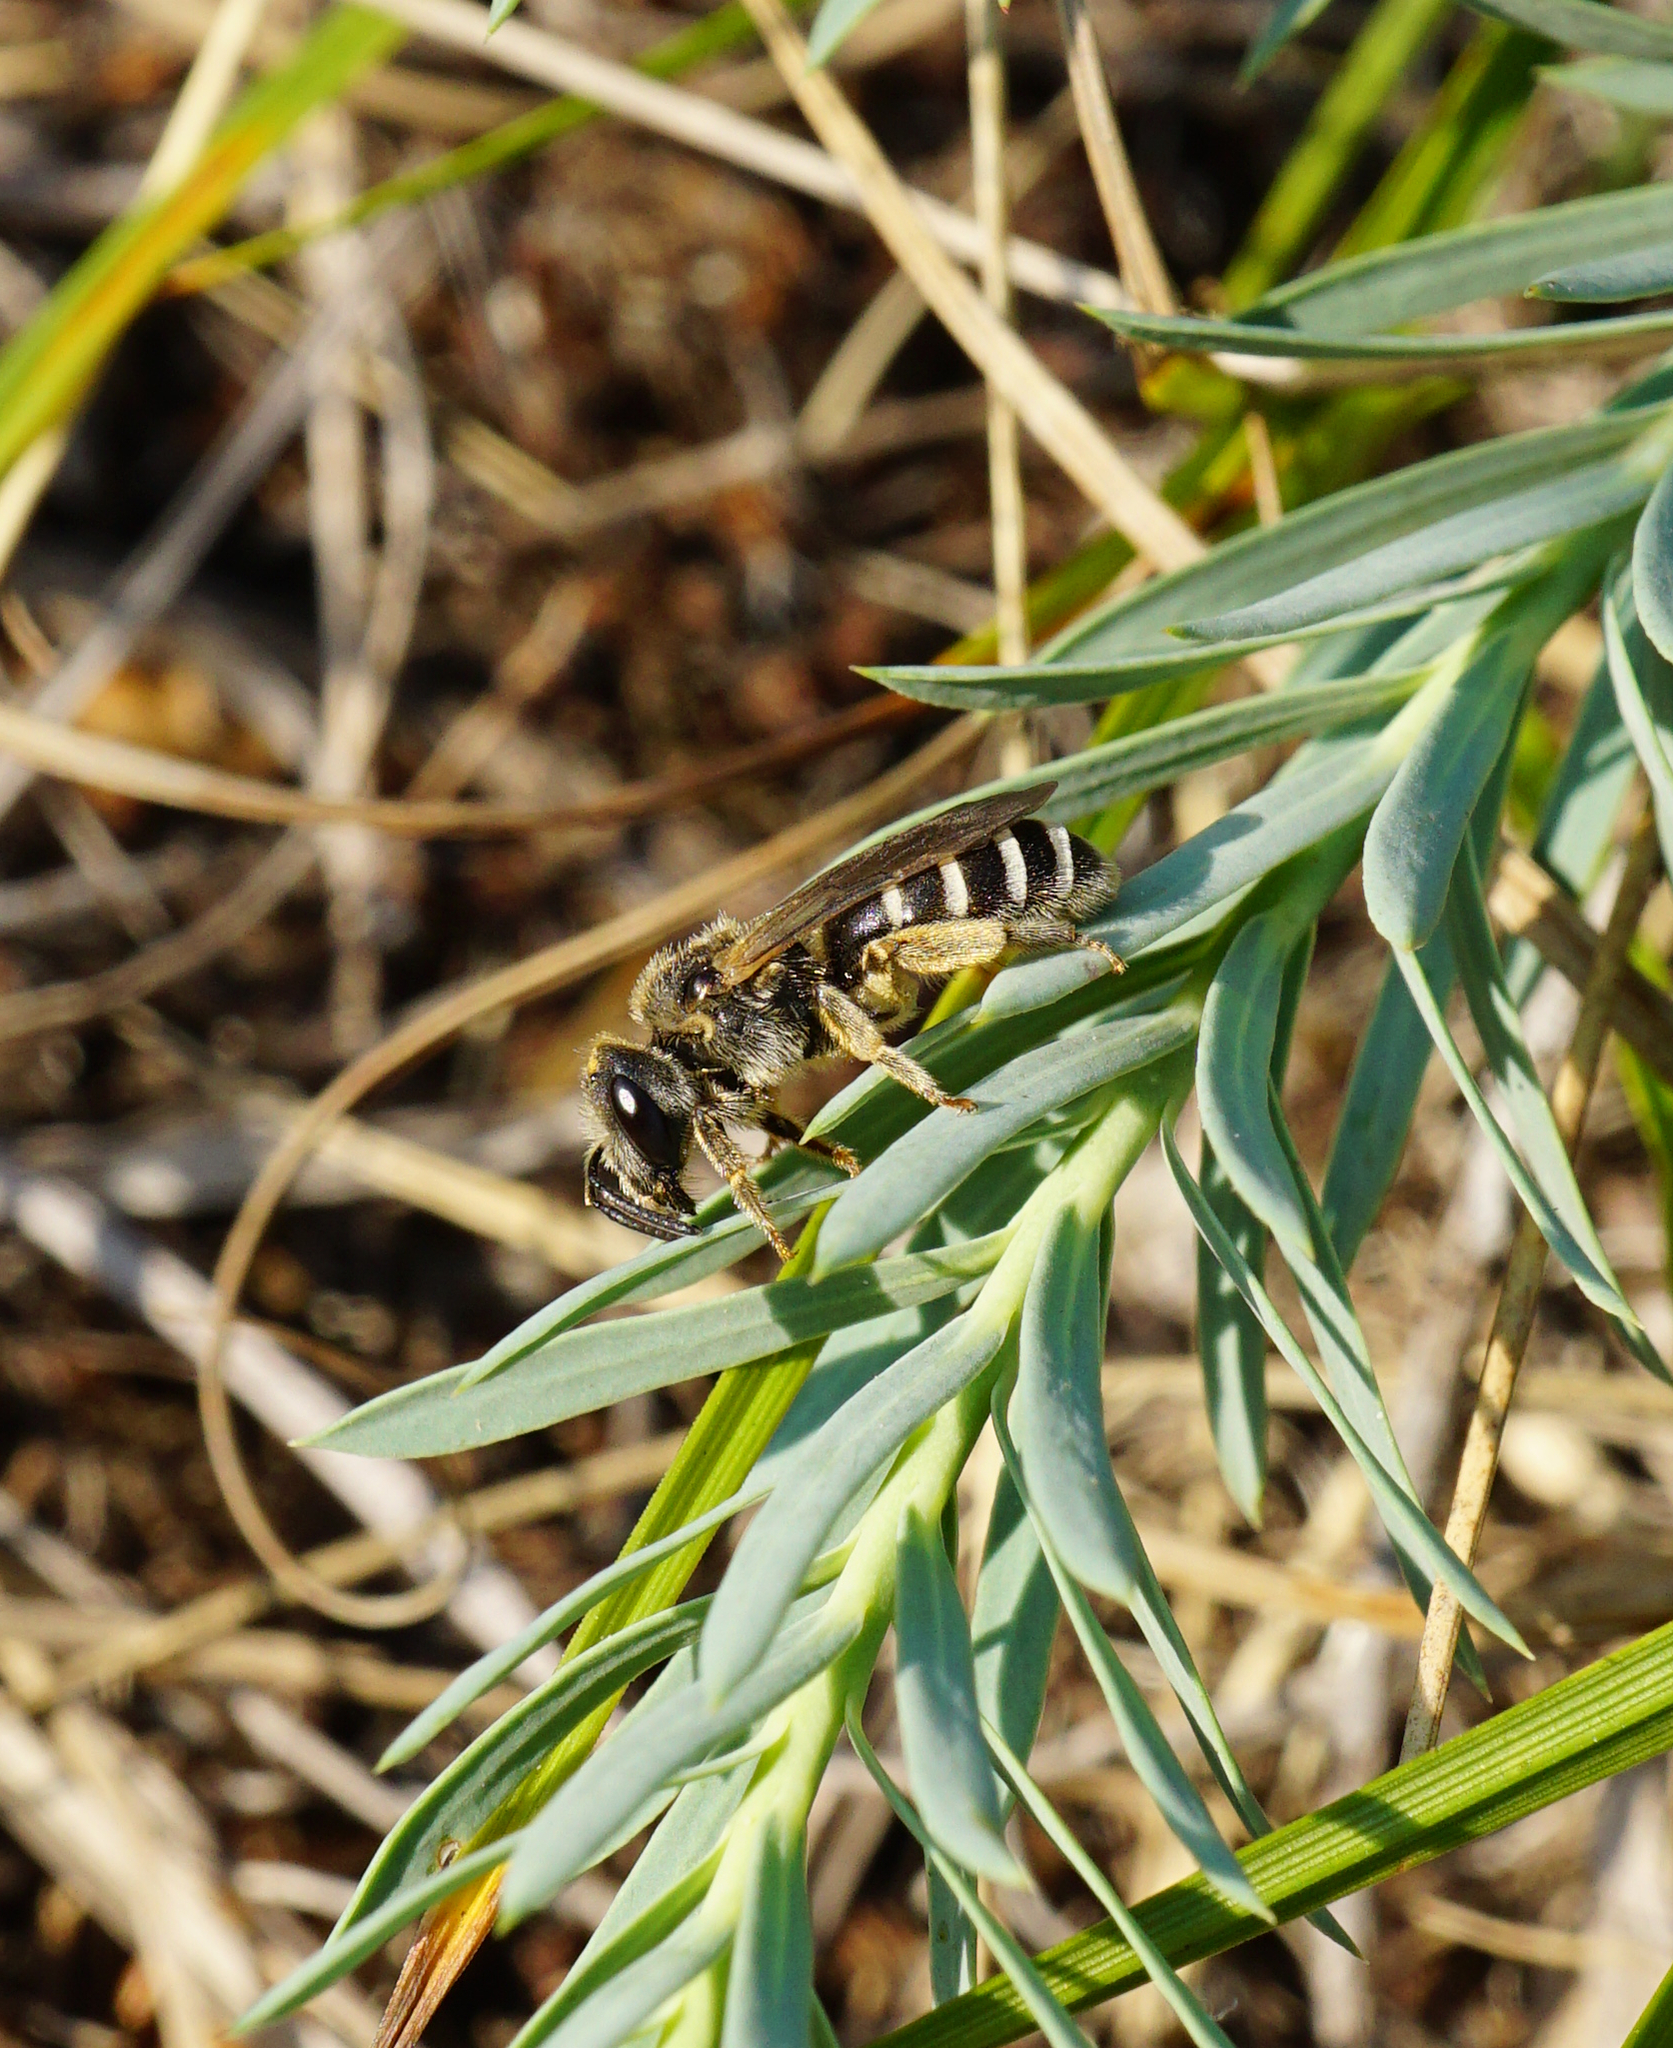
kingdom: Animalia
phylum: Arthropoda
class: Insecta
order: Hymenoptera
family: Halictidae
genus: Halictus
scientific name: Halictus
